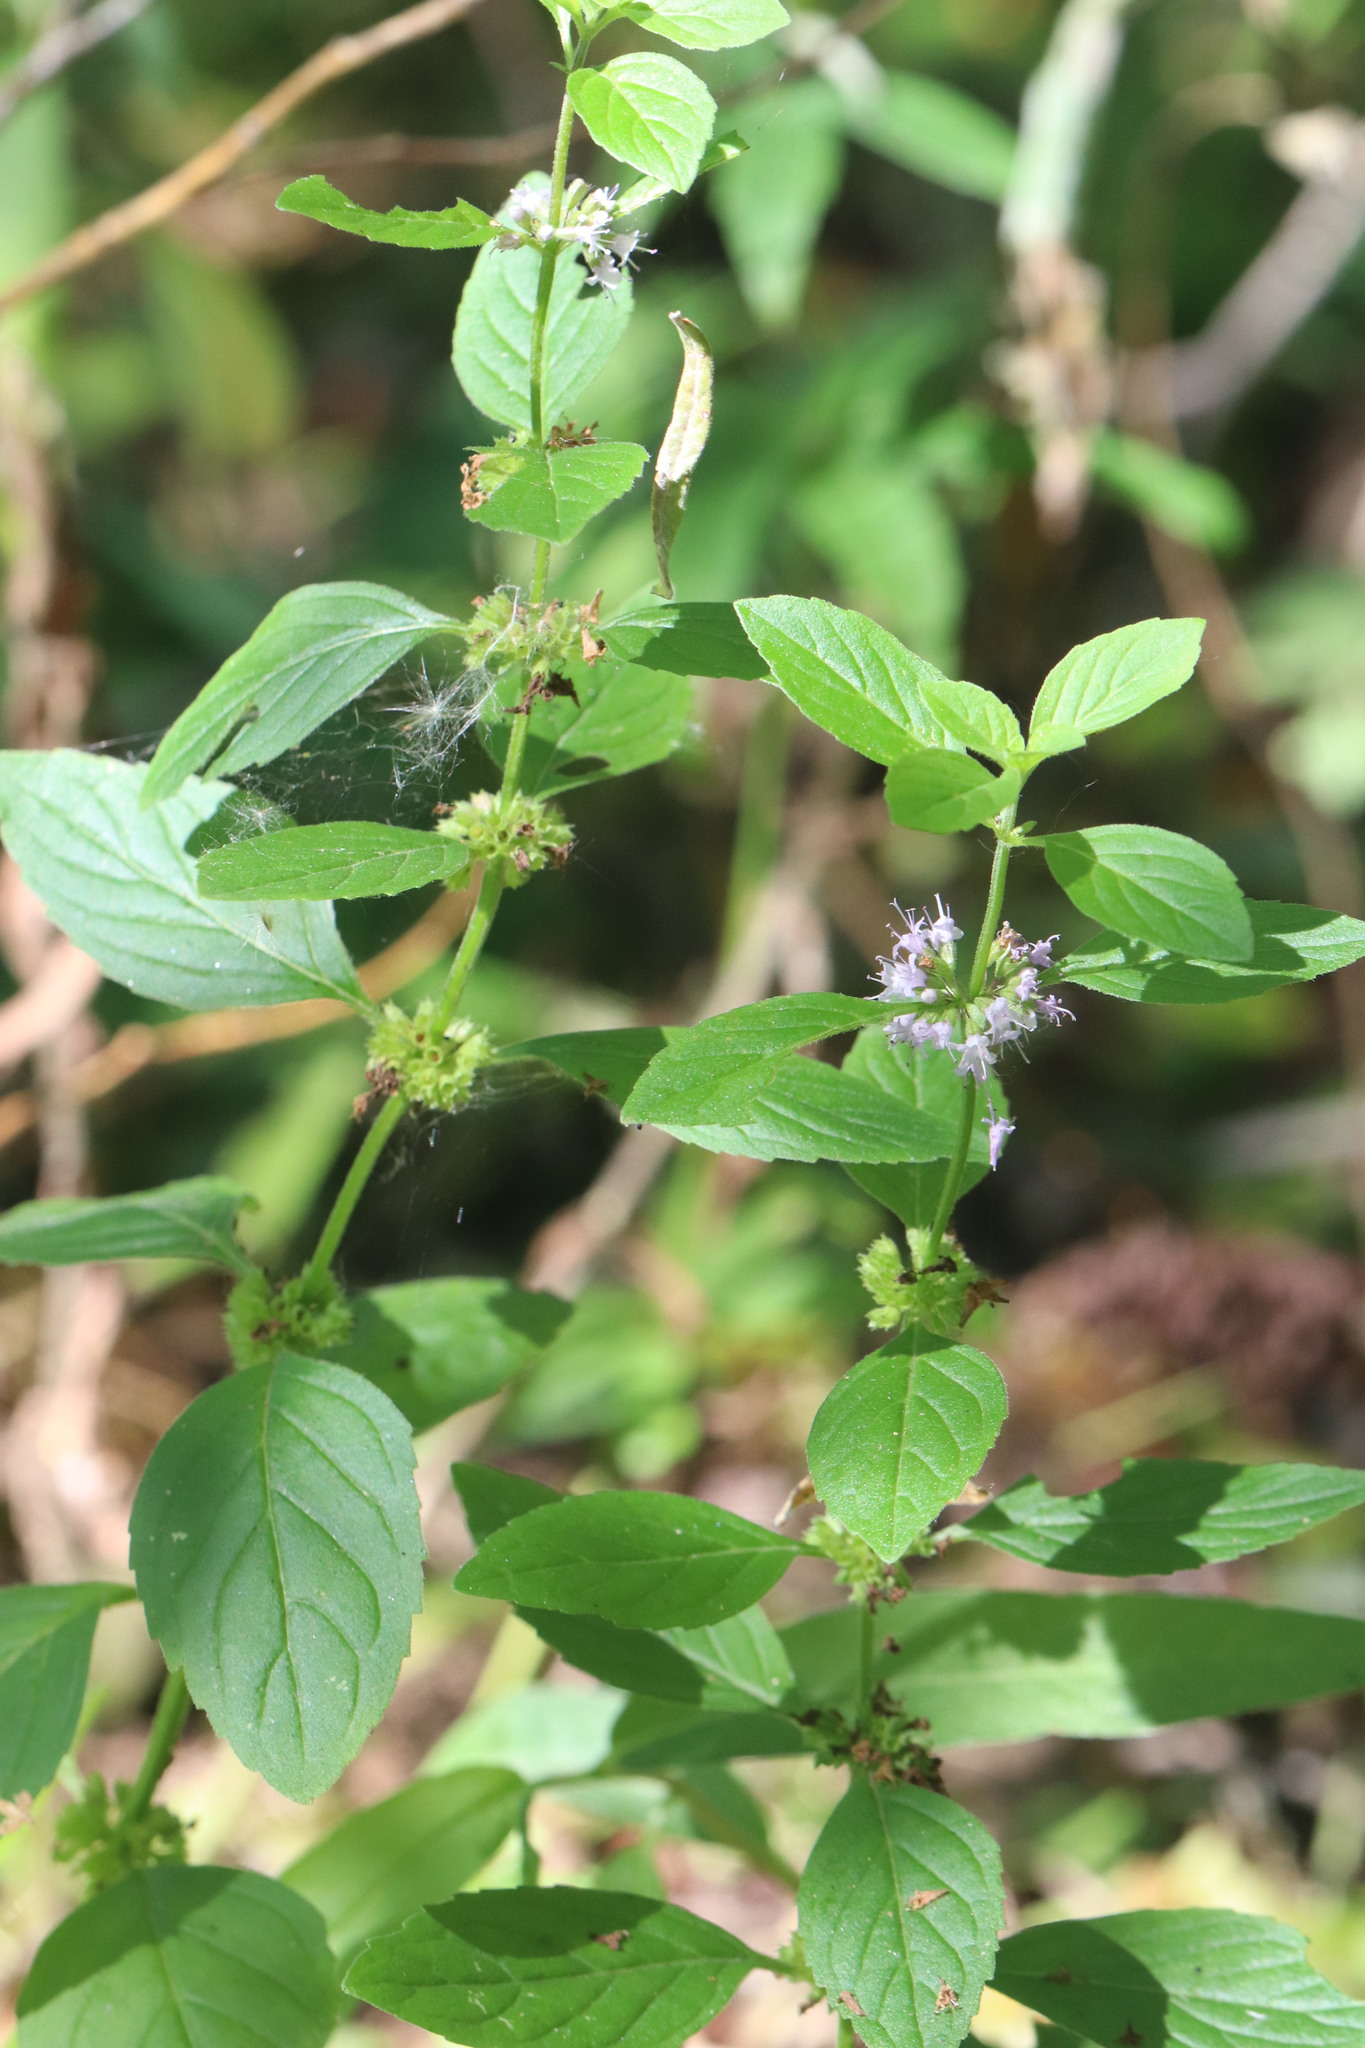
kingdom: Plantae
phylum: Tracheophyta
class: Magnoliopsida
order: Lamiales
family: Lamiaceae
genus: Mentha
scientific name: Mentha arvensis
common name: Corn mint
